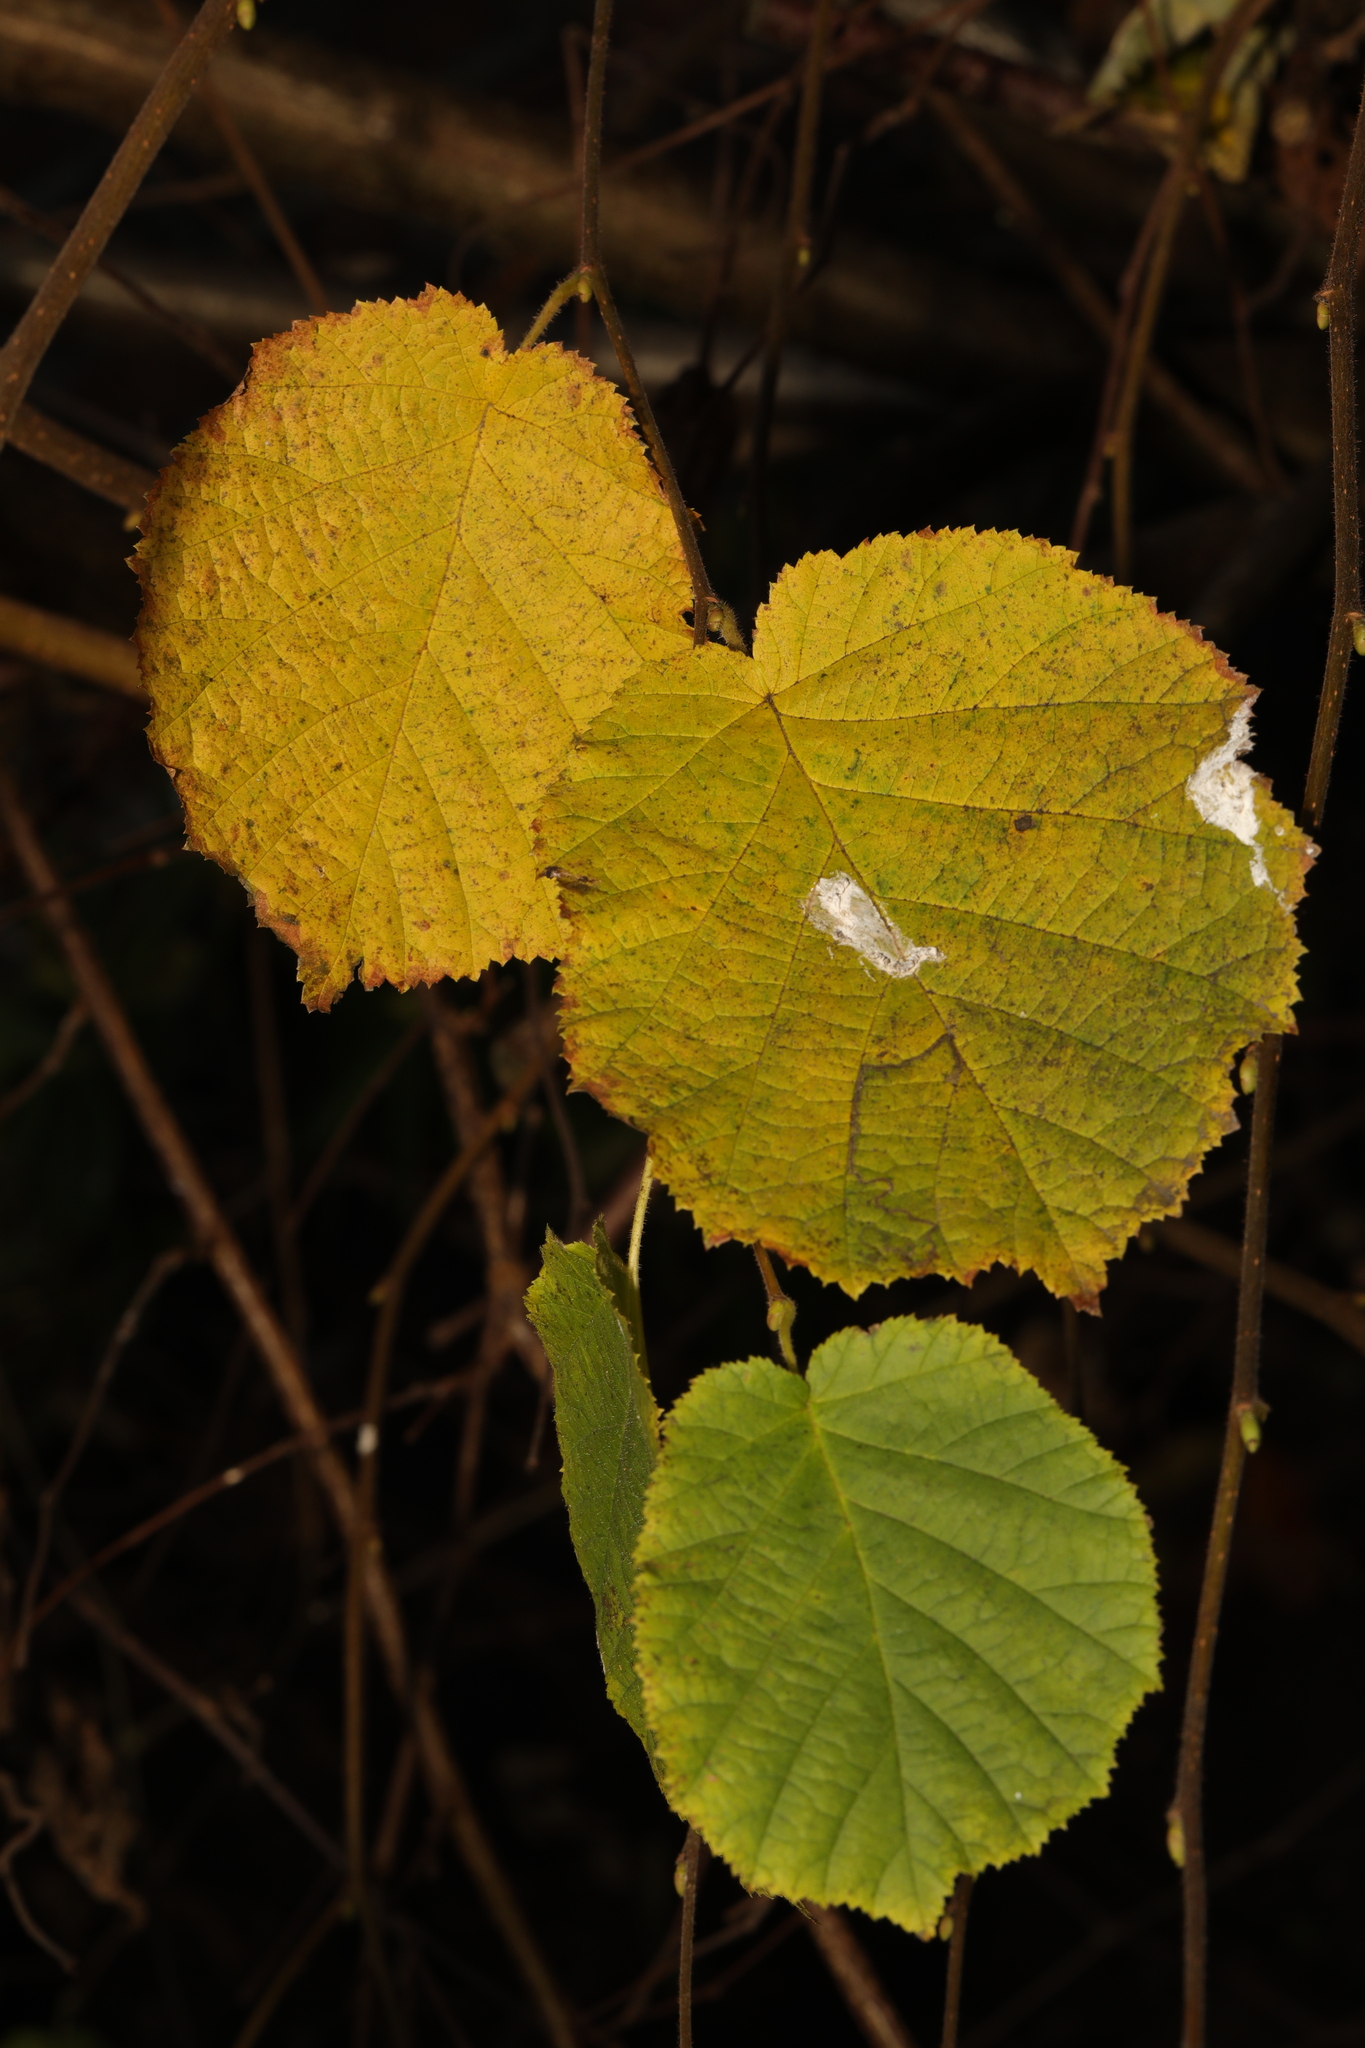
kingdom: Plantae
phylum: Tracheophyta
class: Magnoliopsida
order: Fagales
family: Betulaceae
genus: Corylus
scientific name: Corylus avellana
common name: European hazel
